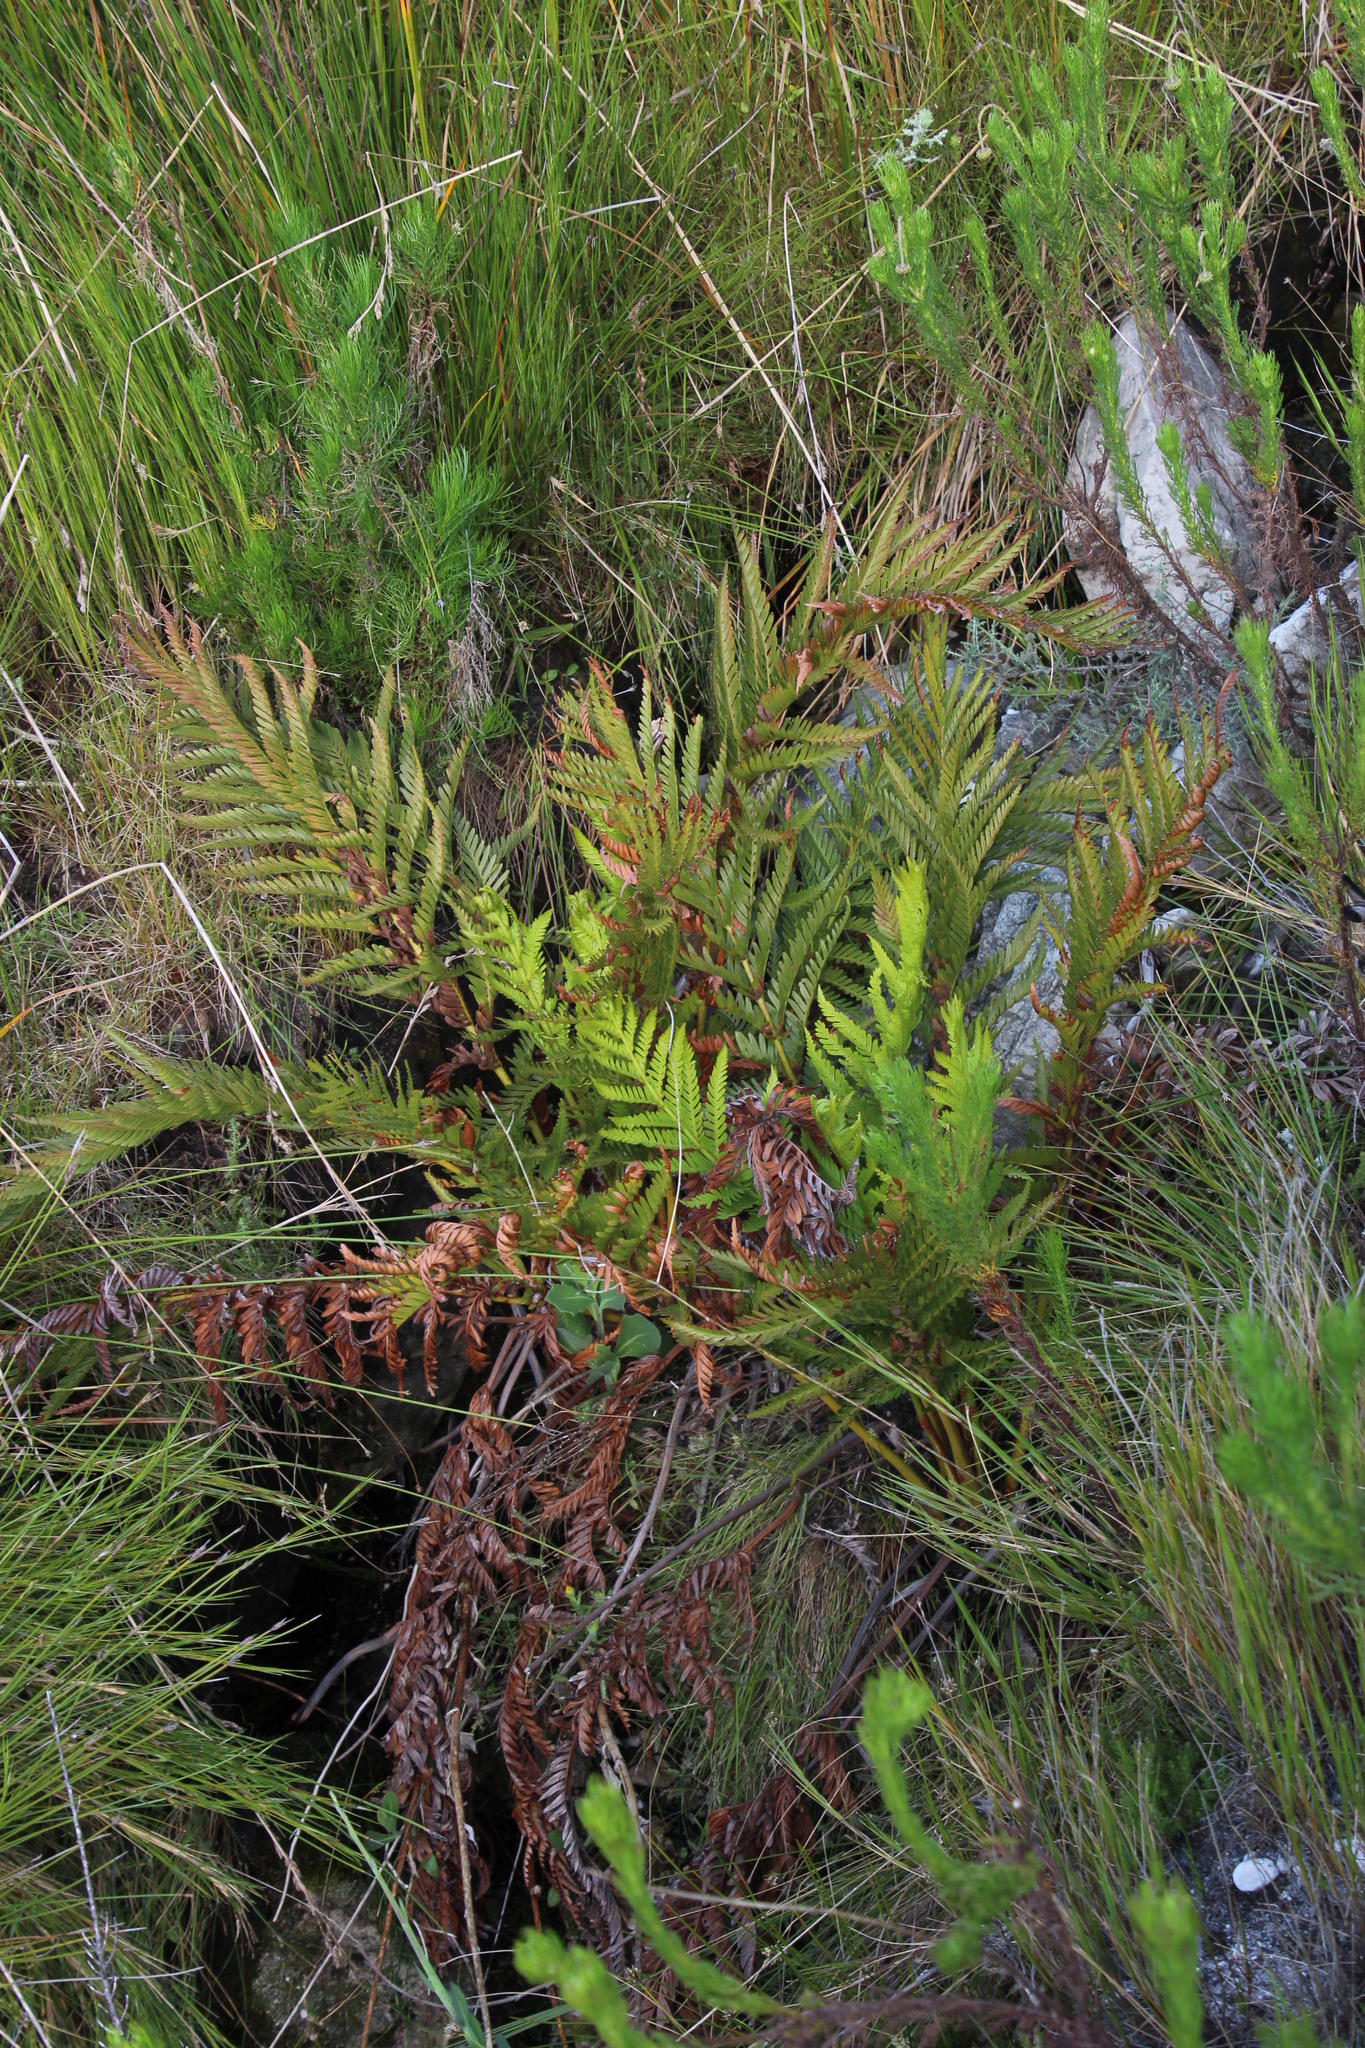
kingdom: Plantae
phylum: Tracheophyta
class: Polypodiopsida
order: Osmundales
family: Osmundaceae
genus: Todea
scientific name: Todea barbara
